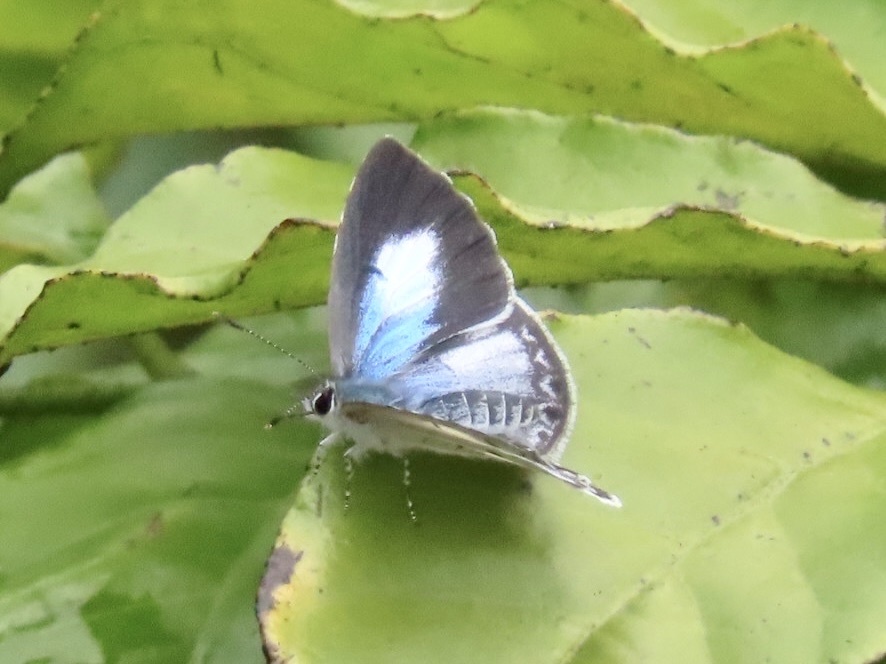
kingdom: Animalia
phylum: Arthropoda
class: Insecta
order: Lepidoptera
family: Lycaenidae
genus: Acytolepis
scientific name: Acytolepis puspa
